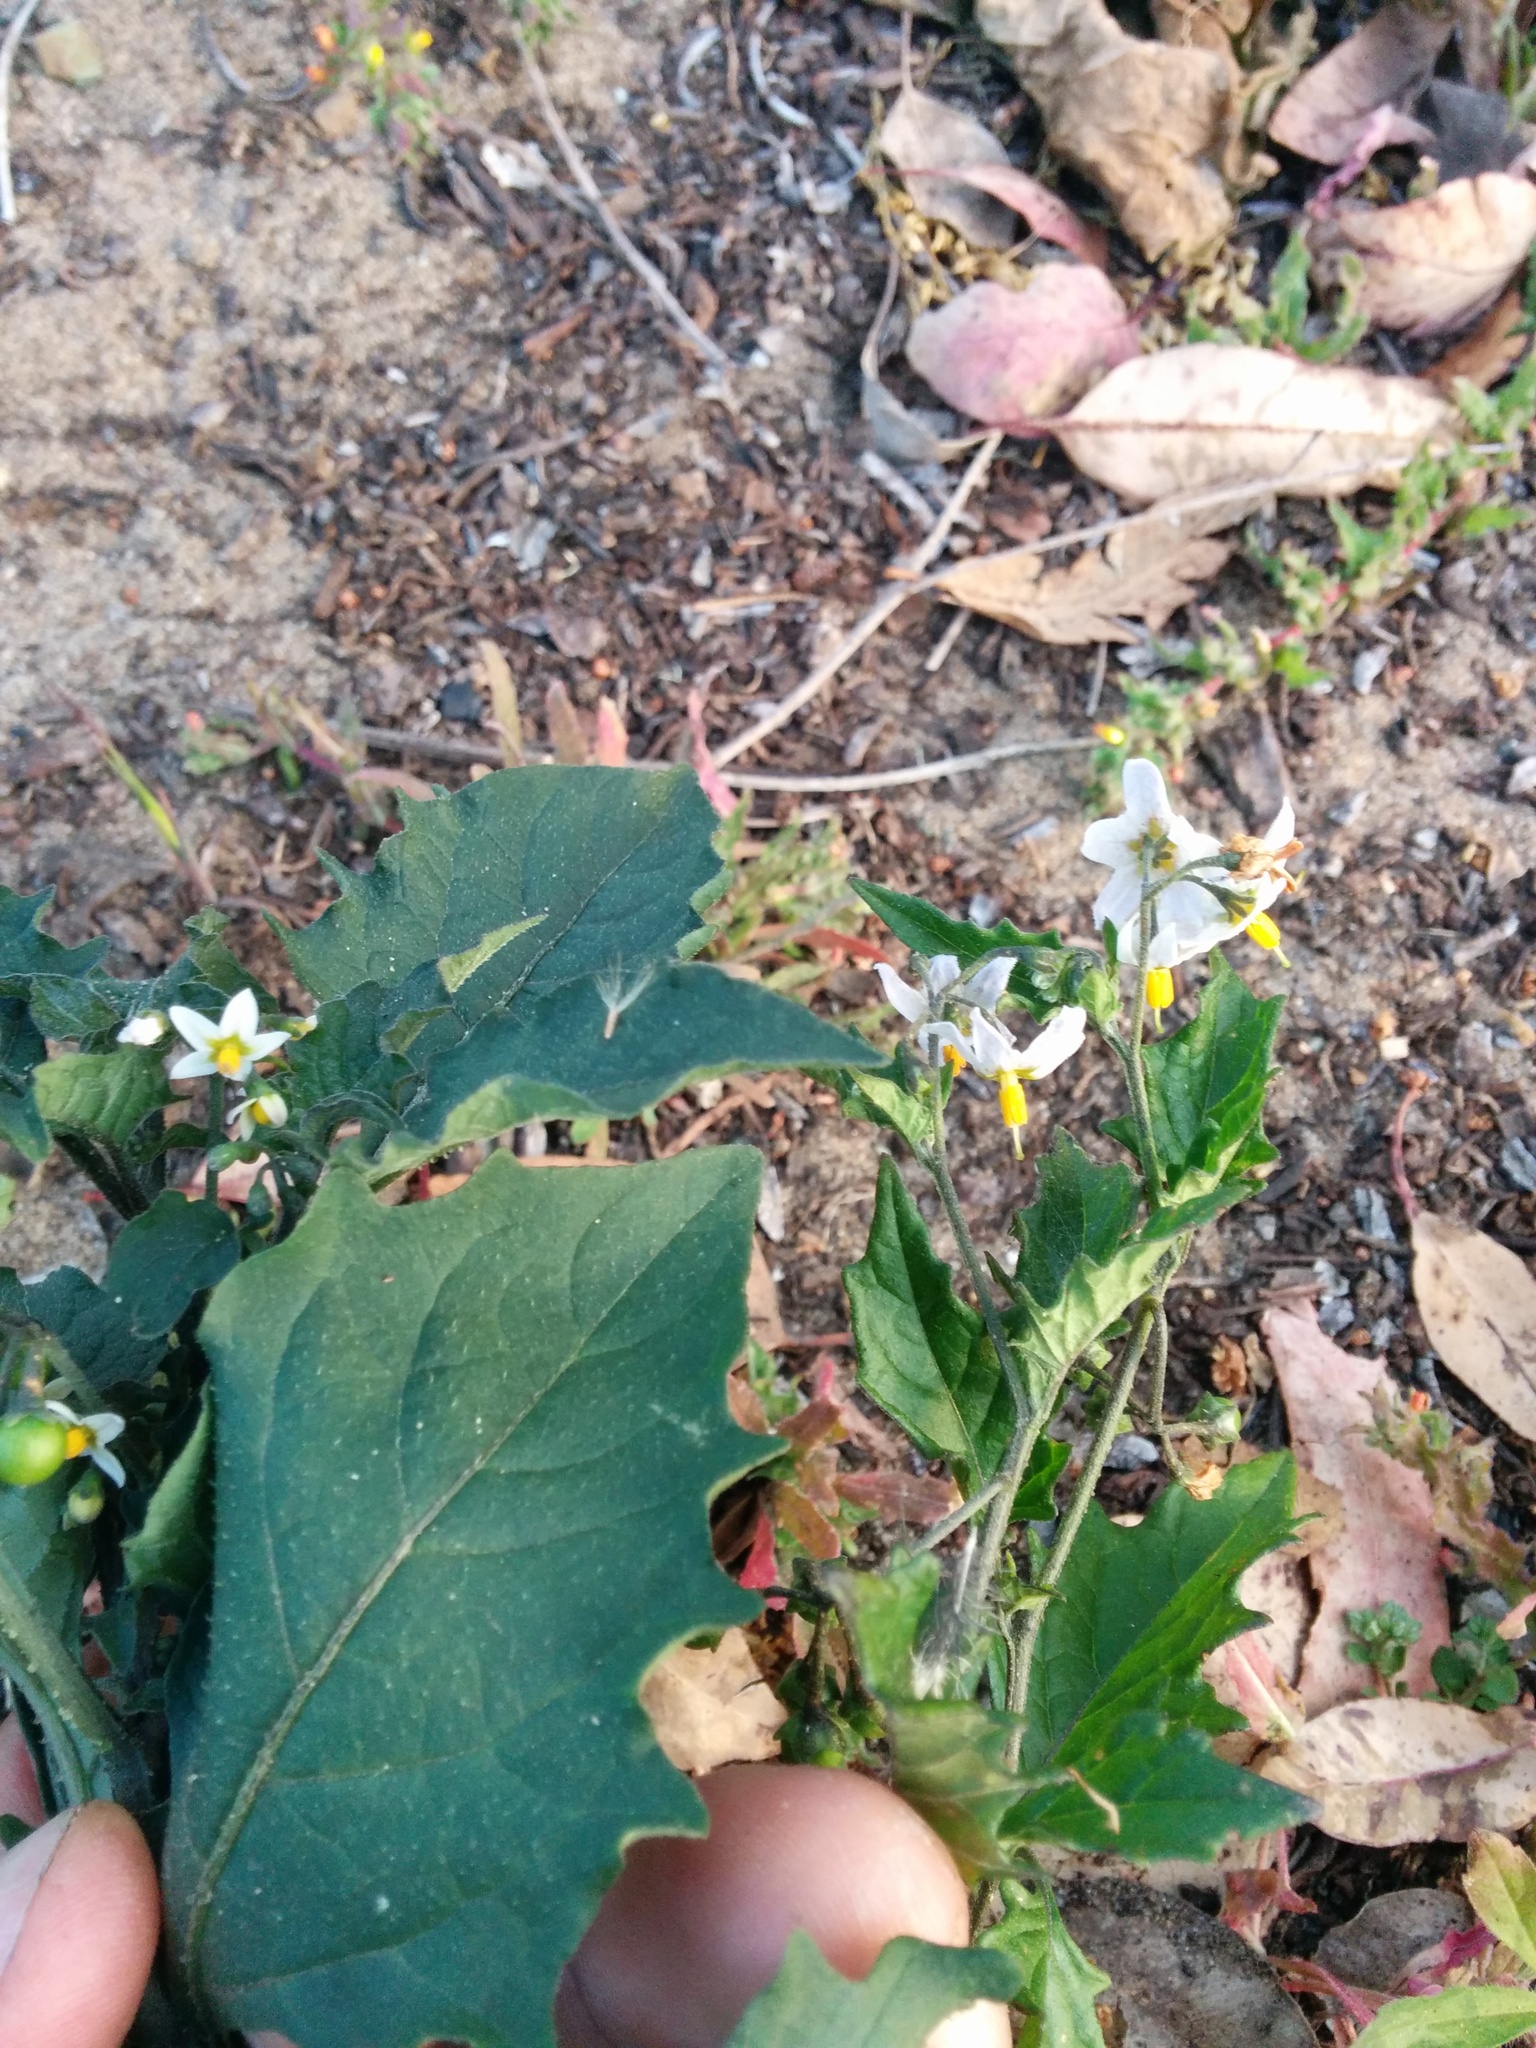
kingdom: Plantae
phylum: Tracheophyta
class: Magnoliopsida
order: Asterales
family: Asteraceae
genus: Anaphalis
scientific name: Anaphalis margaritacea
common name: Pearly everlasting
